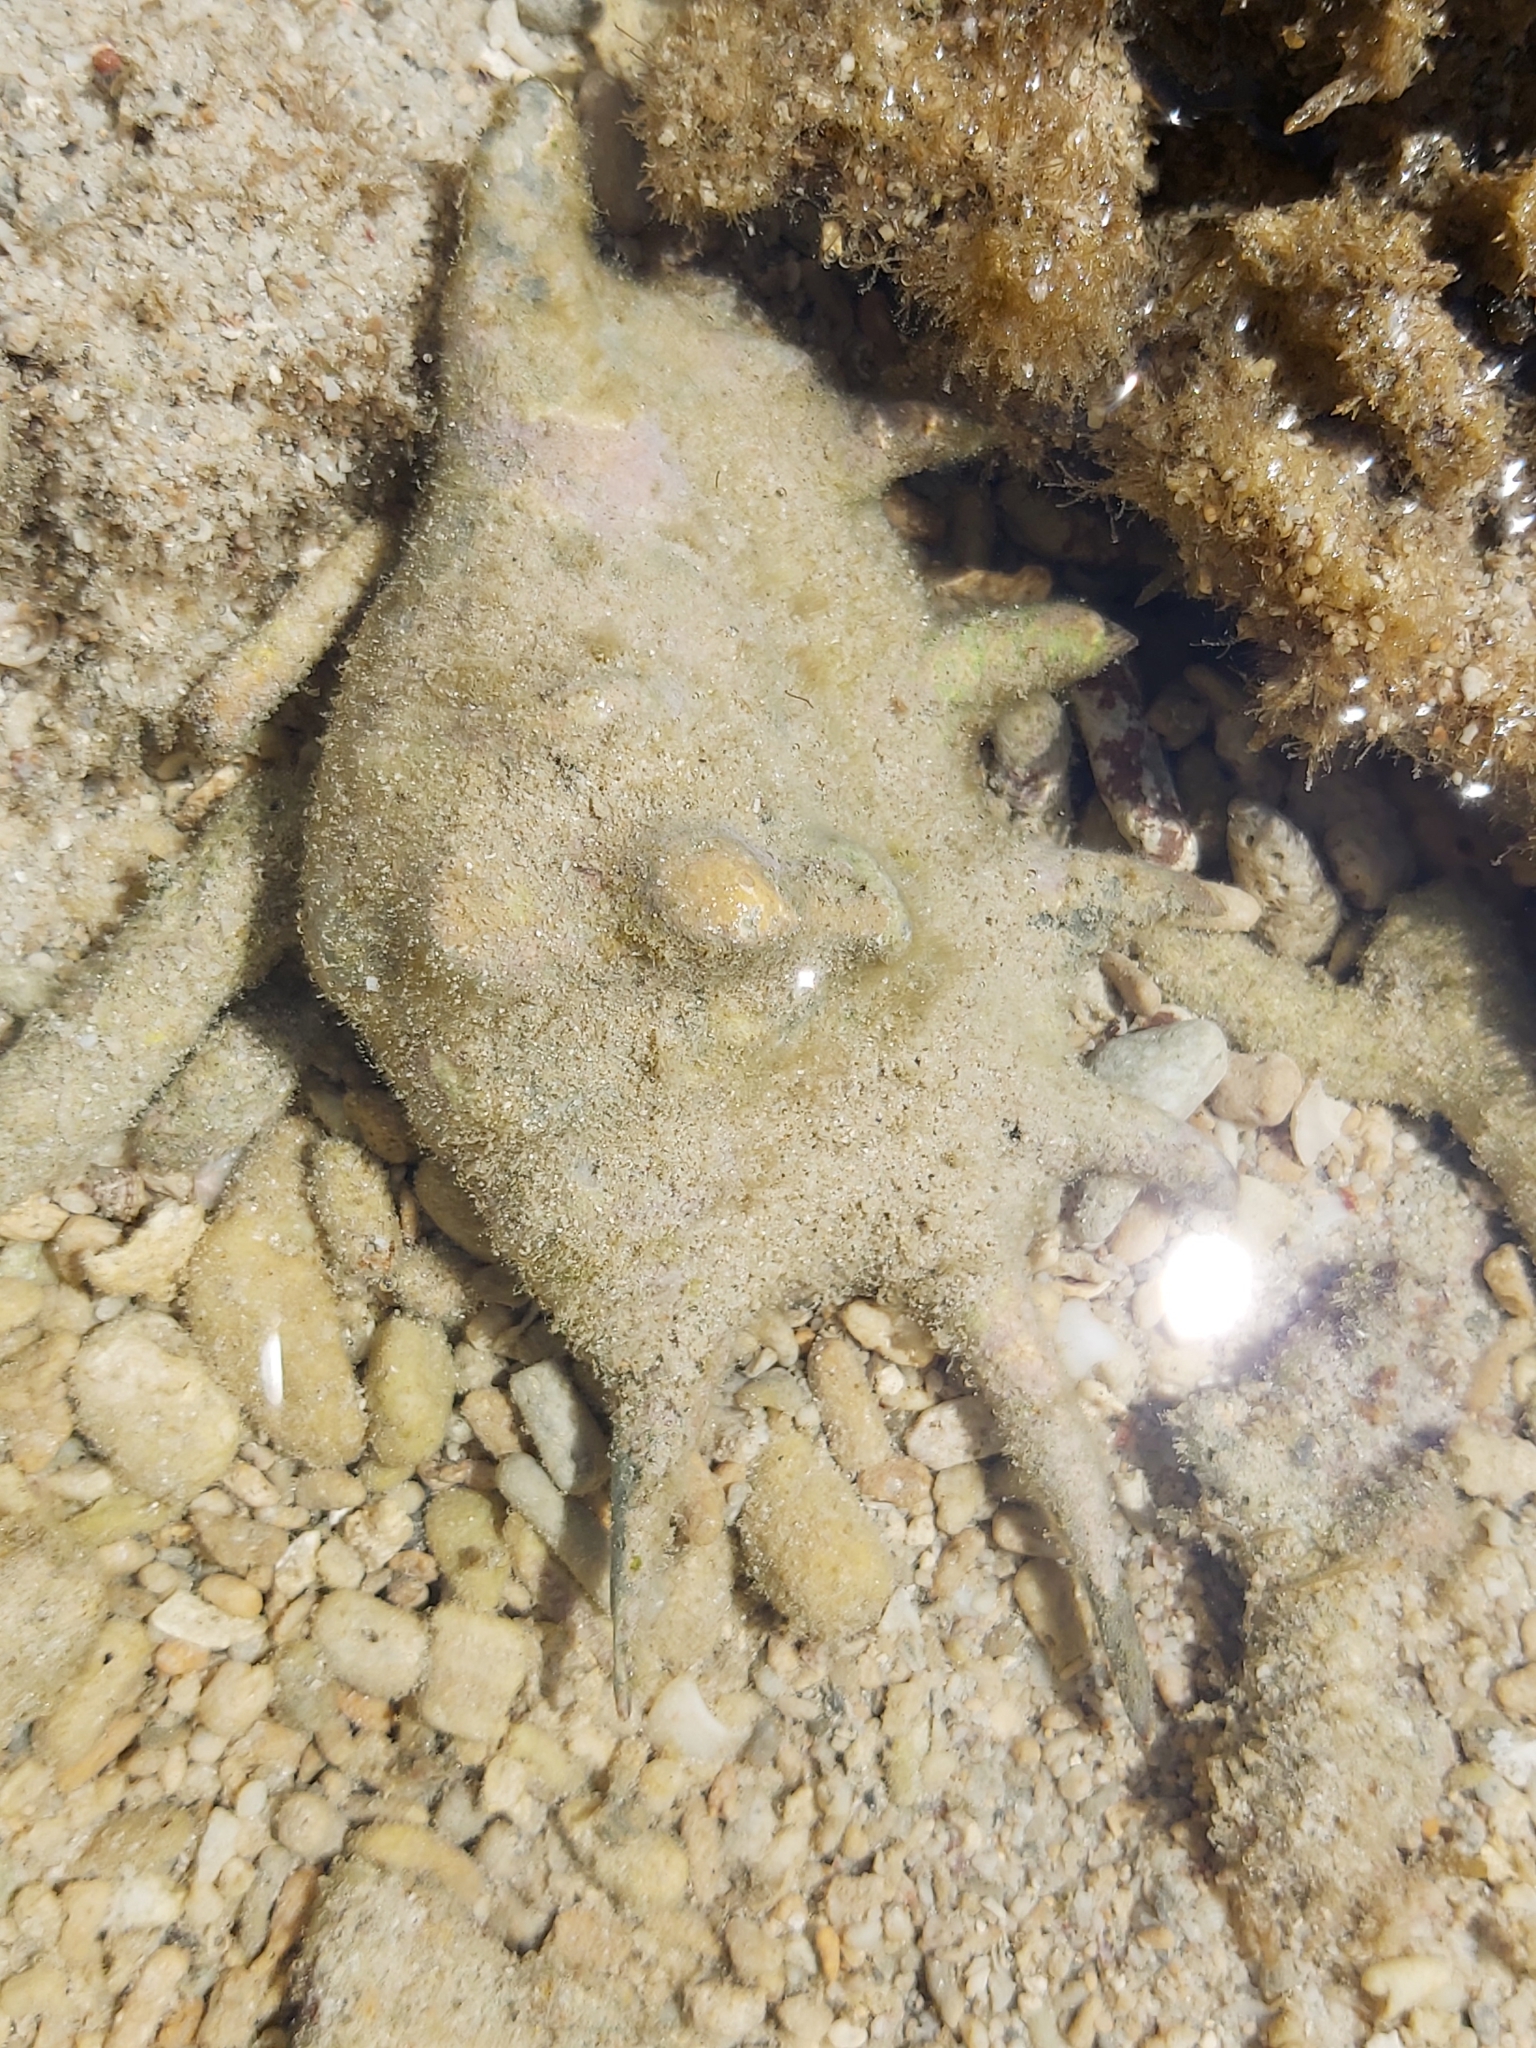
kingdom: Animalia
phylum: Mollusca
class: Gastropoda
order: Littorinimorpha
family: Strombidae
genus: Lambis
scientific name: Lambis lambis
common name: Common spider conch
